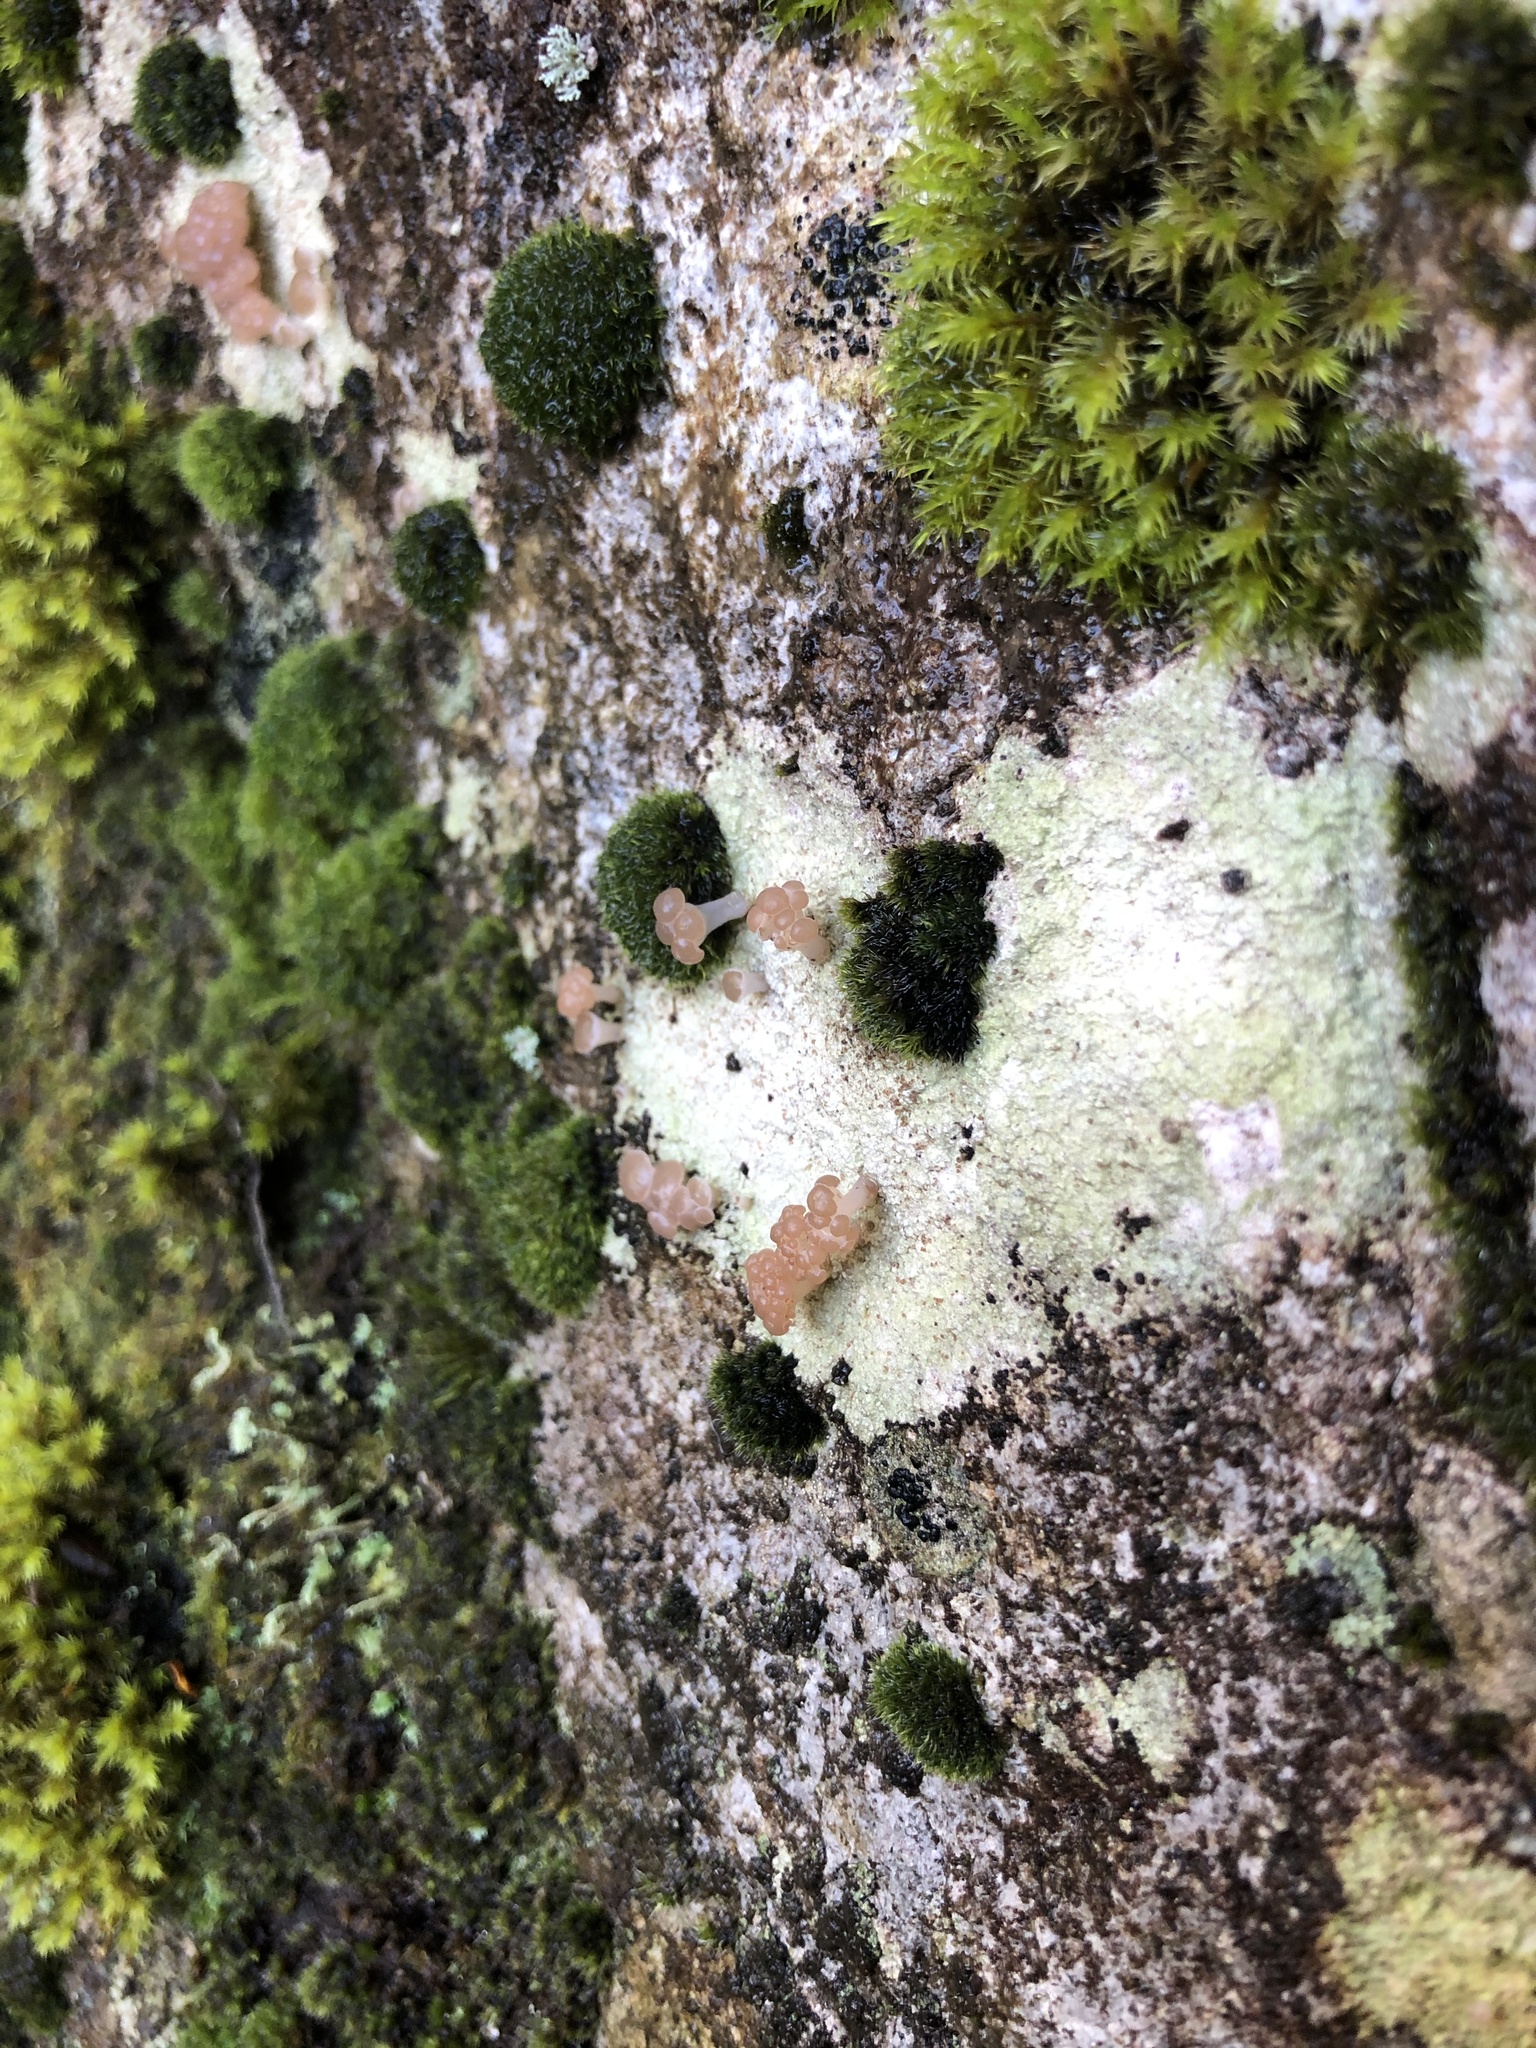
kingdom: Fungi
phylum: Ascomycota
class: Lecanoromycetes
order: Baeomycetales
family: Baeomycetaceae
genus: Baeomyces
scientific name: Baeomyces heteromorphus
